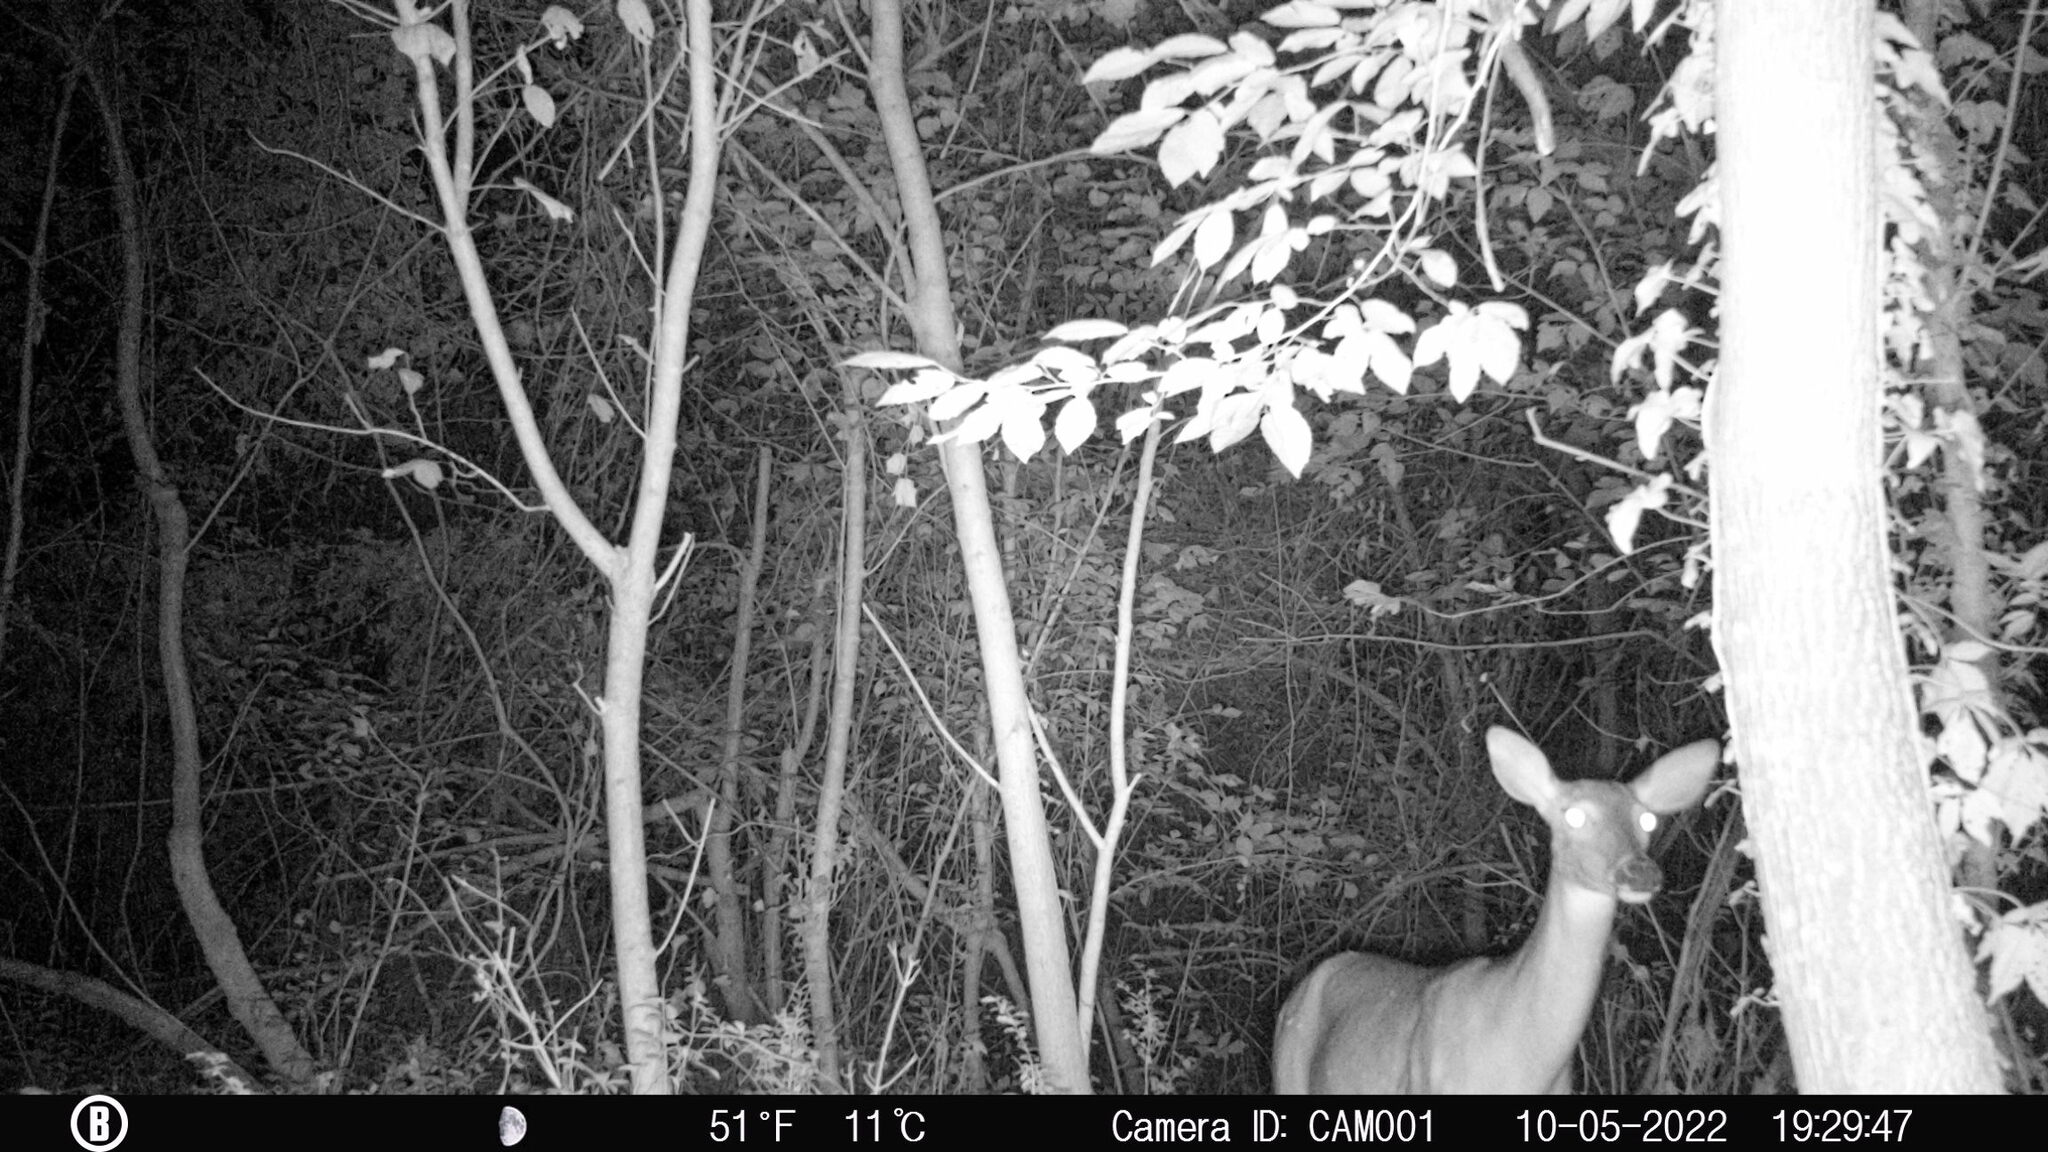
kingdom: Animalia
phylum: Chordata
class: Mammalia
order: Artiodactyla
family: Cervidae
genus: Odocoileus
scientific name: Odocoileus virginianus
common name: White-tailed deer
